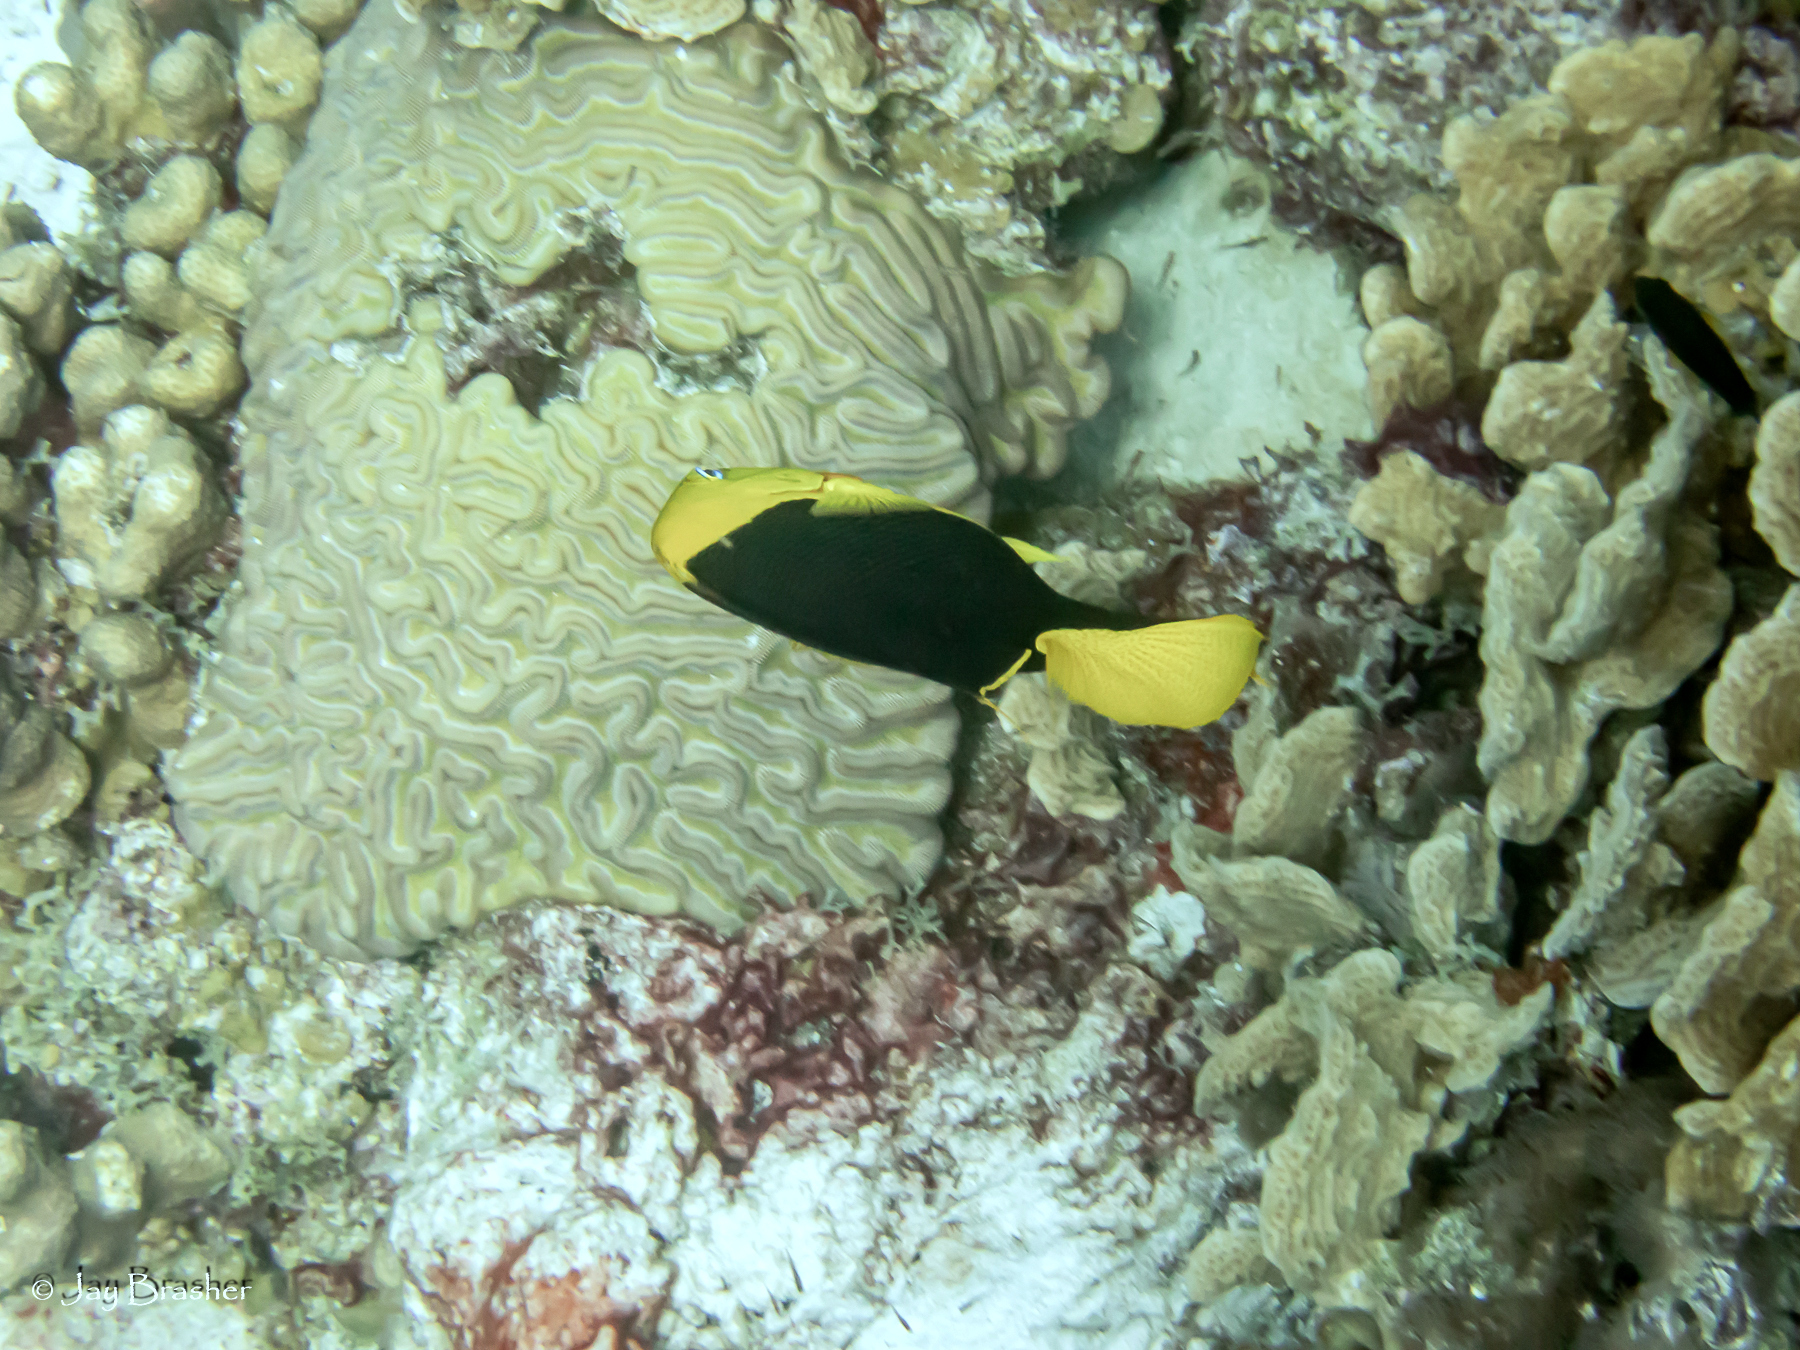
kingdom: Animalia
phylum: Chordata
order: Perciformes
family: Pomacanthidae
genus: Holacanthus
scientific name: Holacanthus tricolor
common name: Rock beauty
